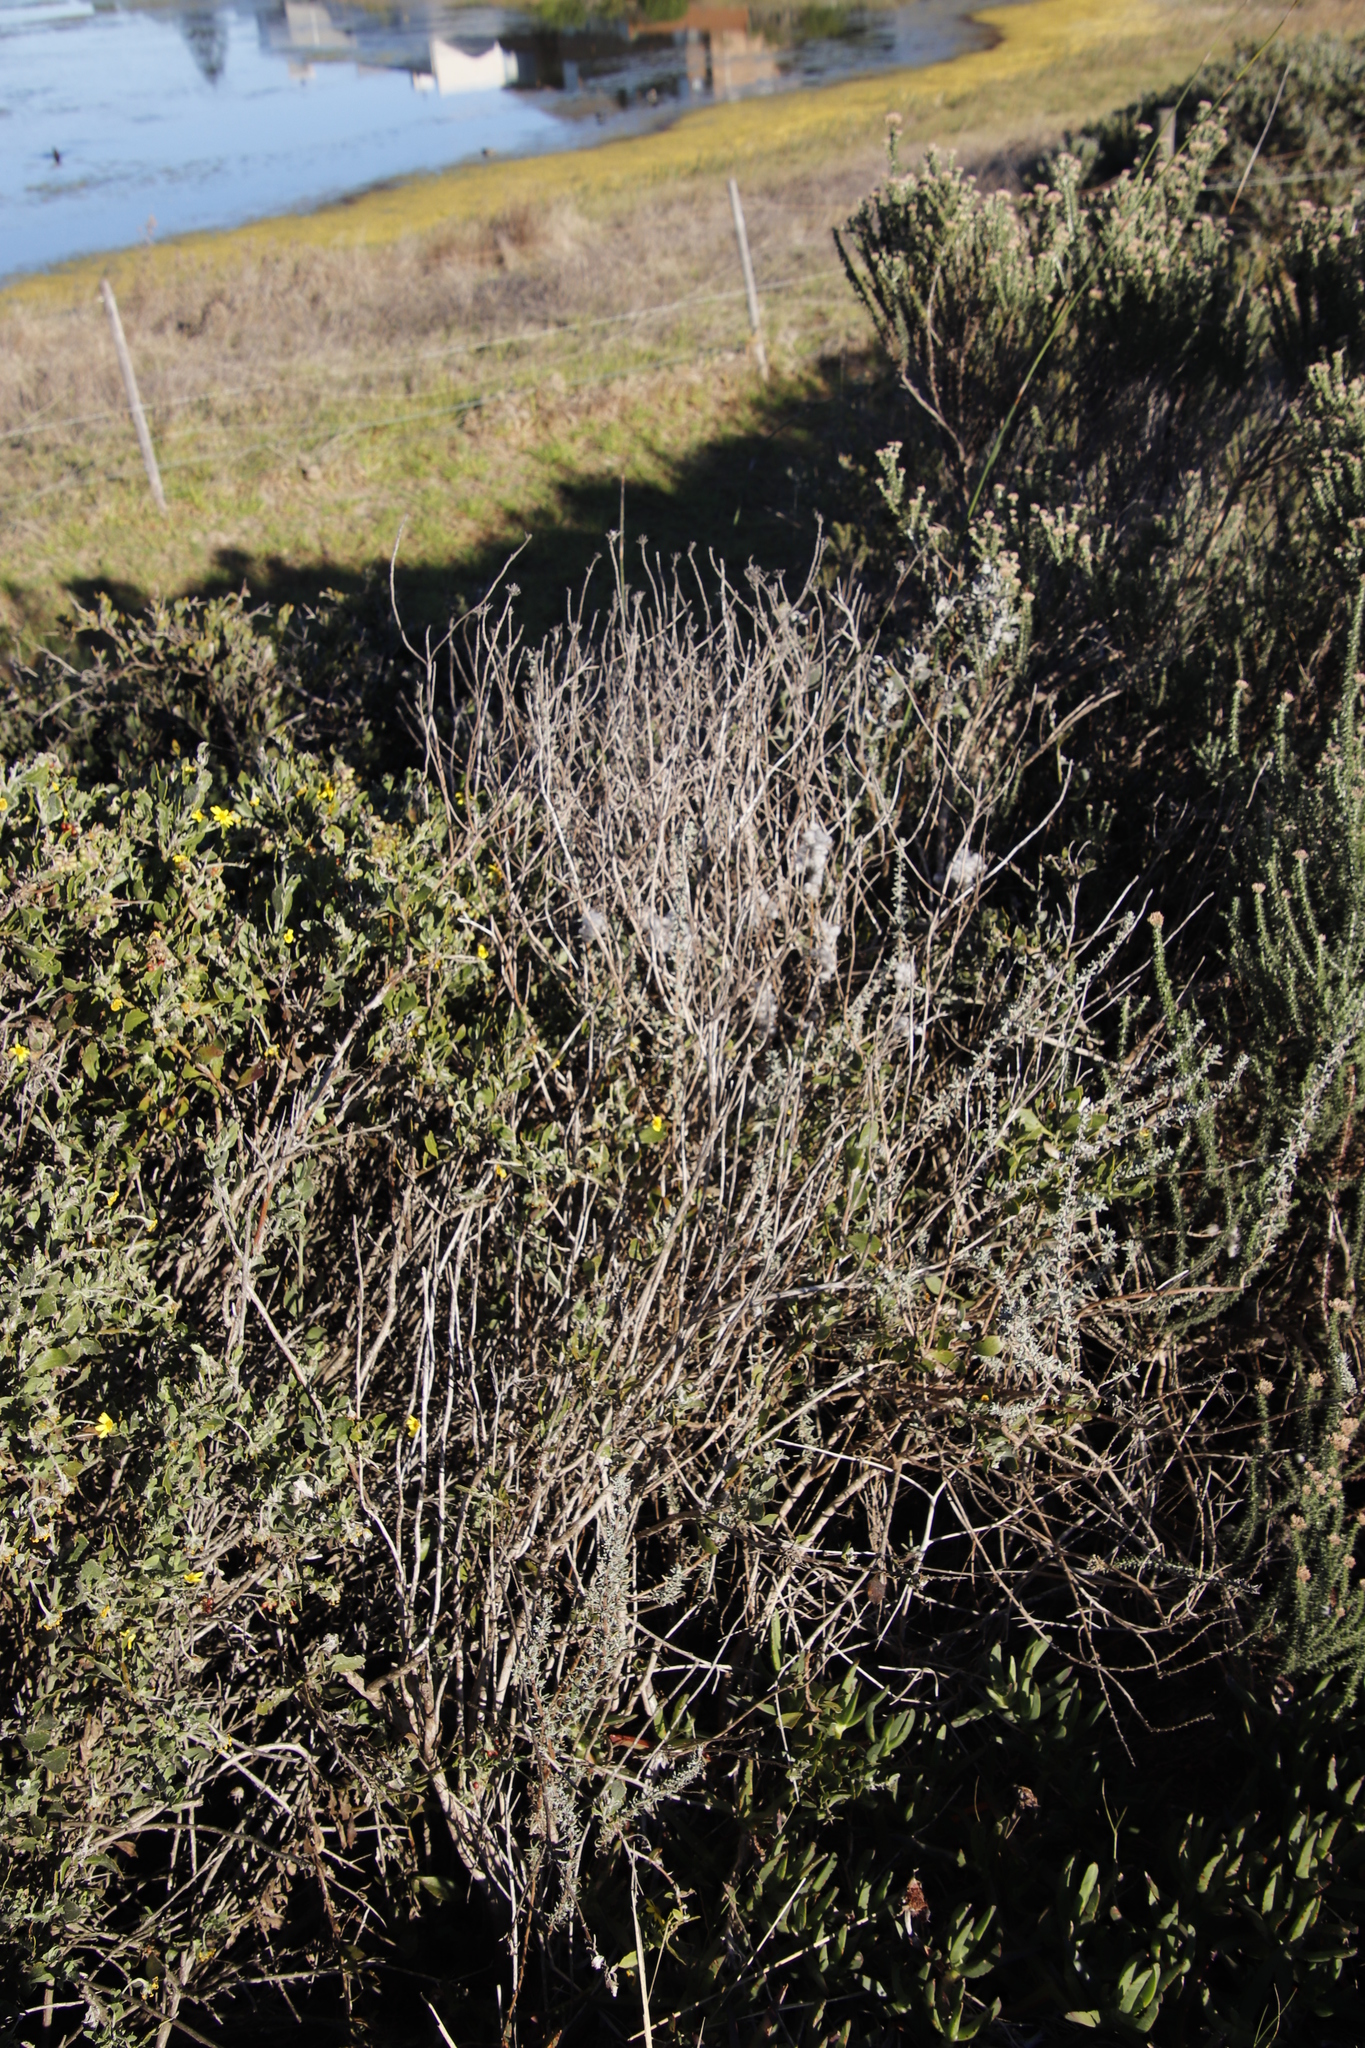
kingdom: Plantae
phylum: Tracheophyta
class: Magnoliopsida
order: Asterales
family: Asteraceae
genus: Eriocephalus
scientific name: Eriocephalus racemosus
